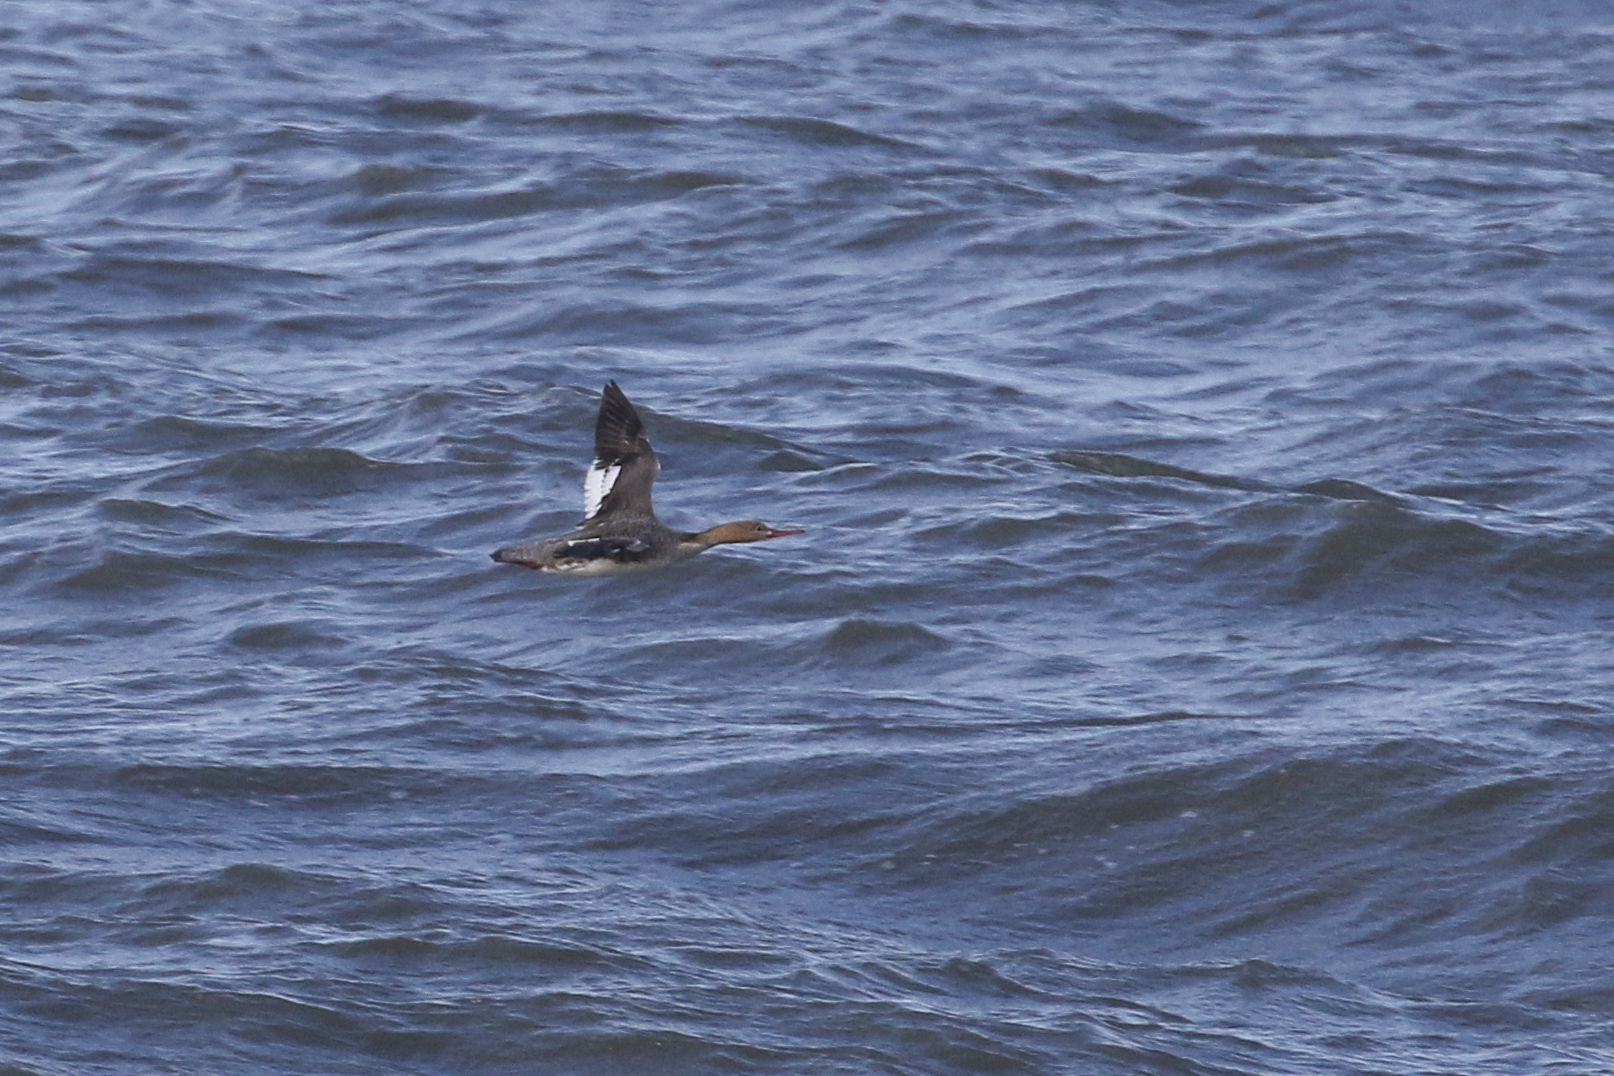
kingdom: Animalia
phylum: Chordata
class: Aves
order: Anseriformes
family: Anatidae
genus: Mergus
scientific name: Mergus serrator
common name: Red-breasted merganser
